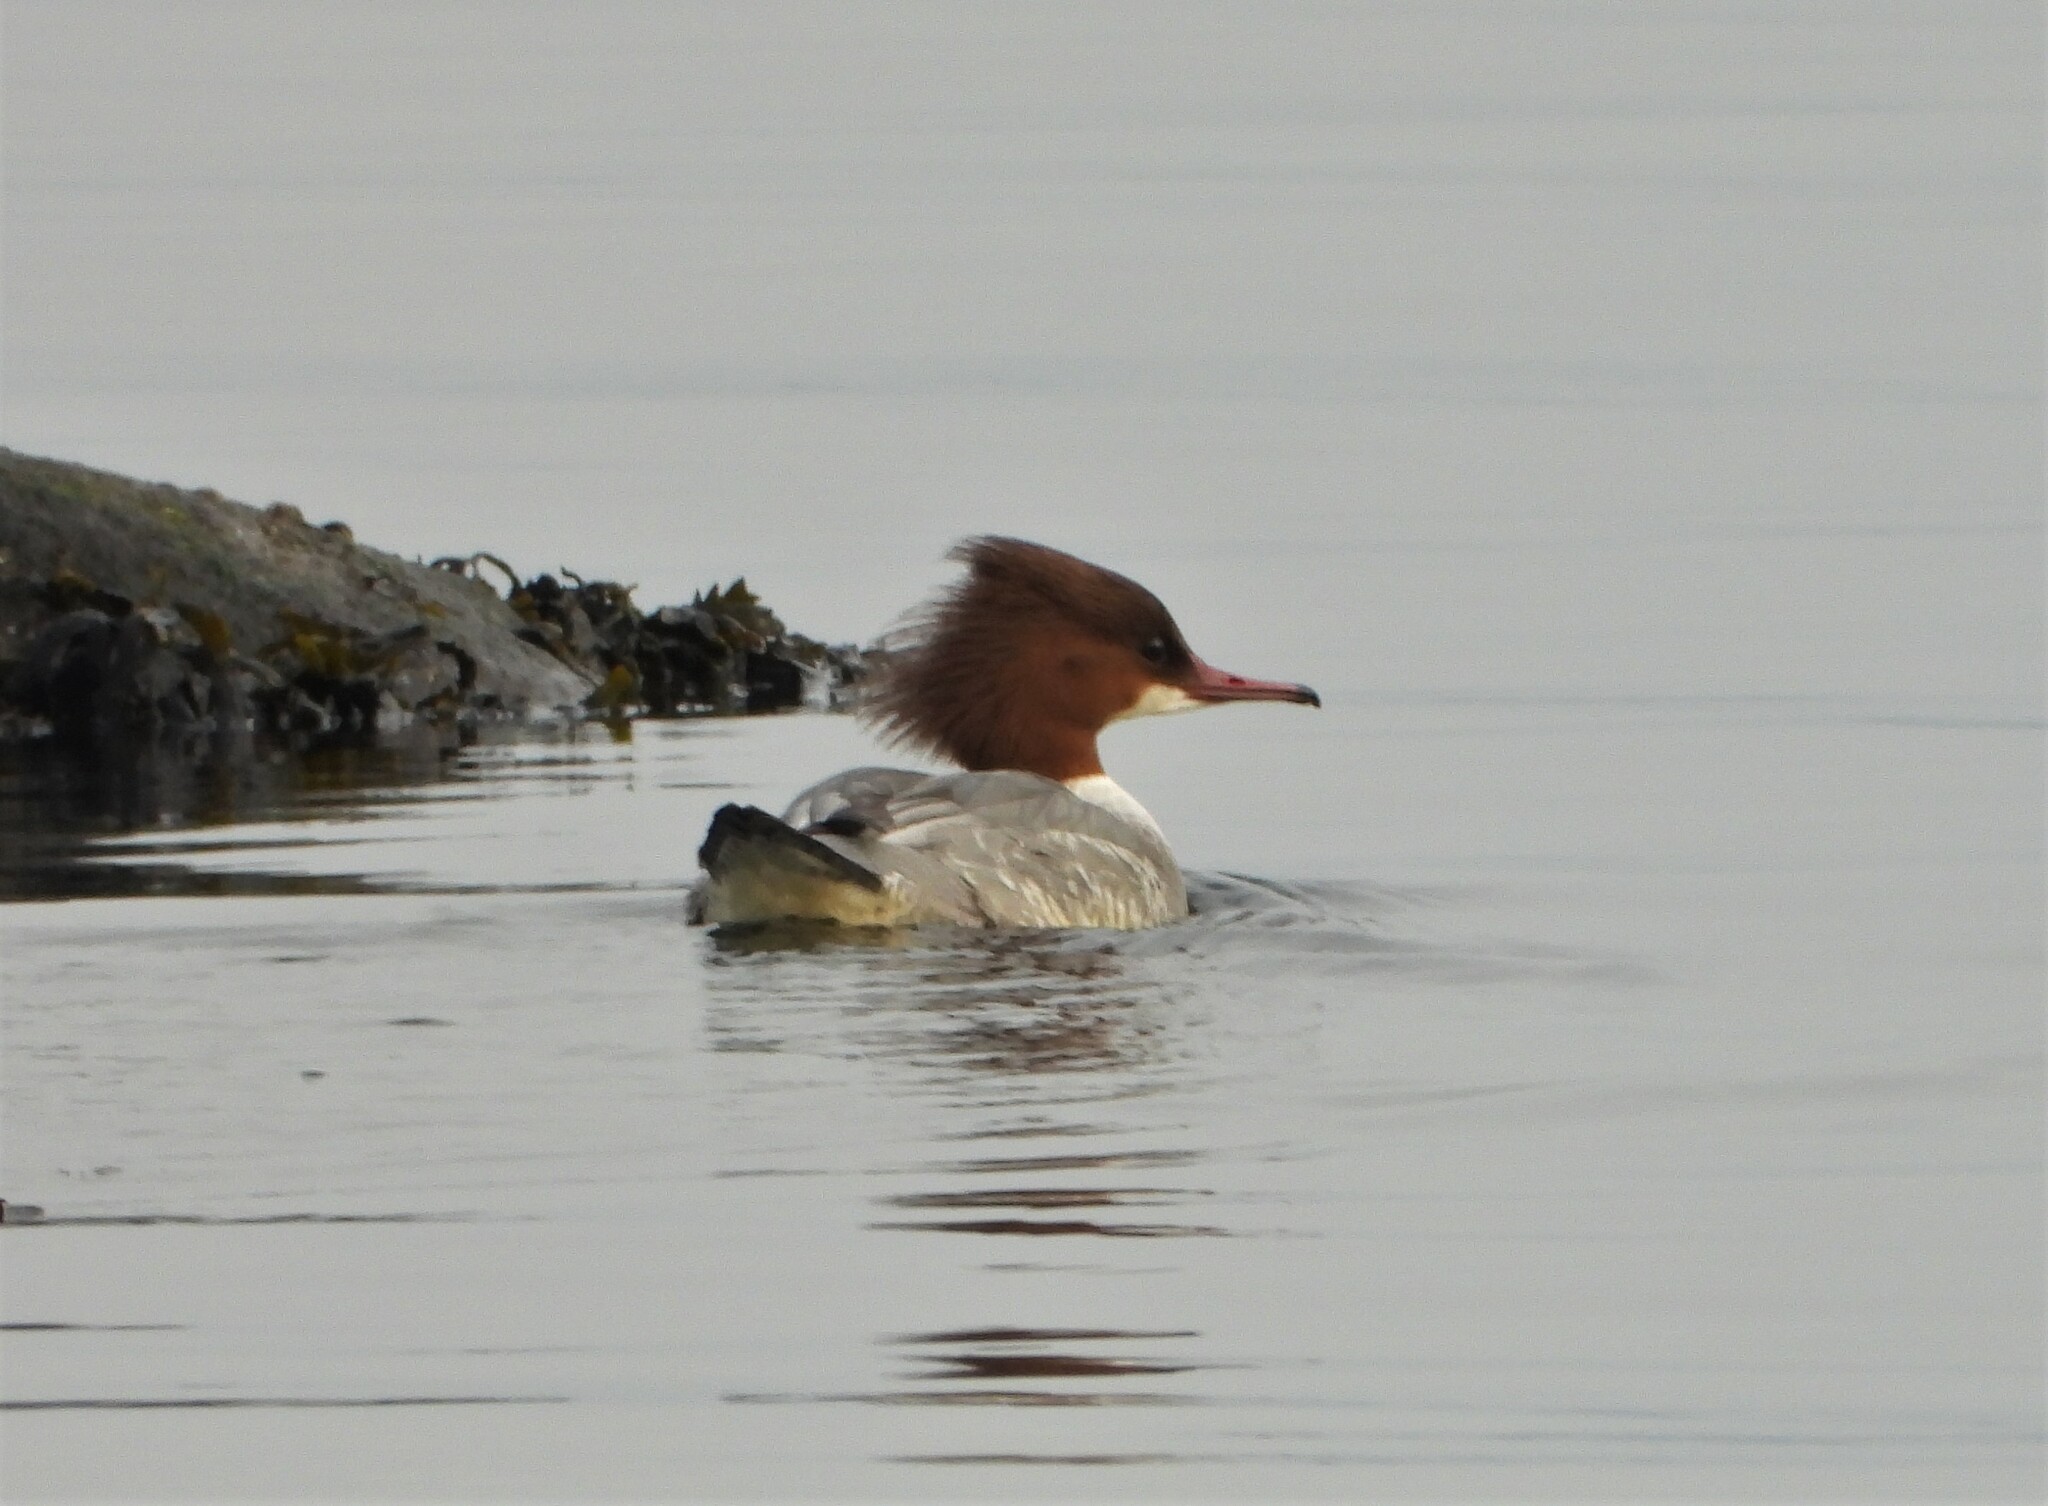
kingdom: Animalia
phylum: Chordata
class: Aves
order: Anseriformes
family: Anatidae
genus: Mergus
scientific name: Mergus merganser
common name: Common merganser
